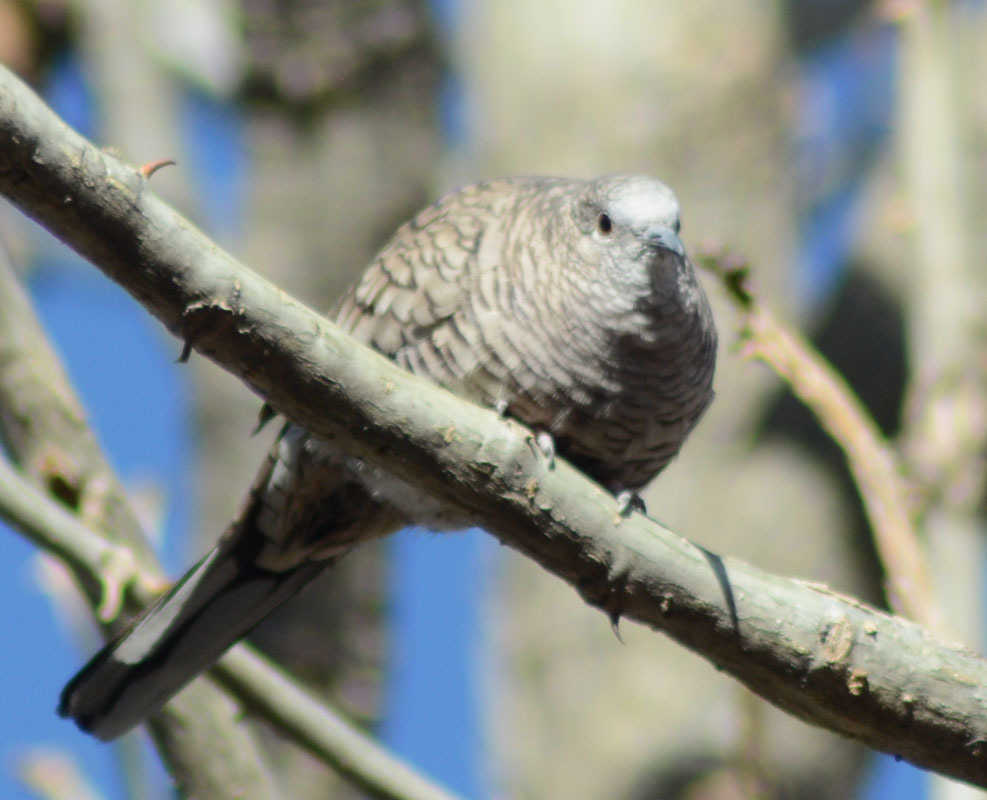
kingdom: Animalia
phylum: Chordata
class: Aves
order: Columbiformes
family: Columbidae
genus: Columbina
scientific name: Columbina inca
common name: Inca dove
